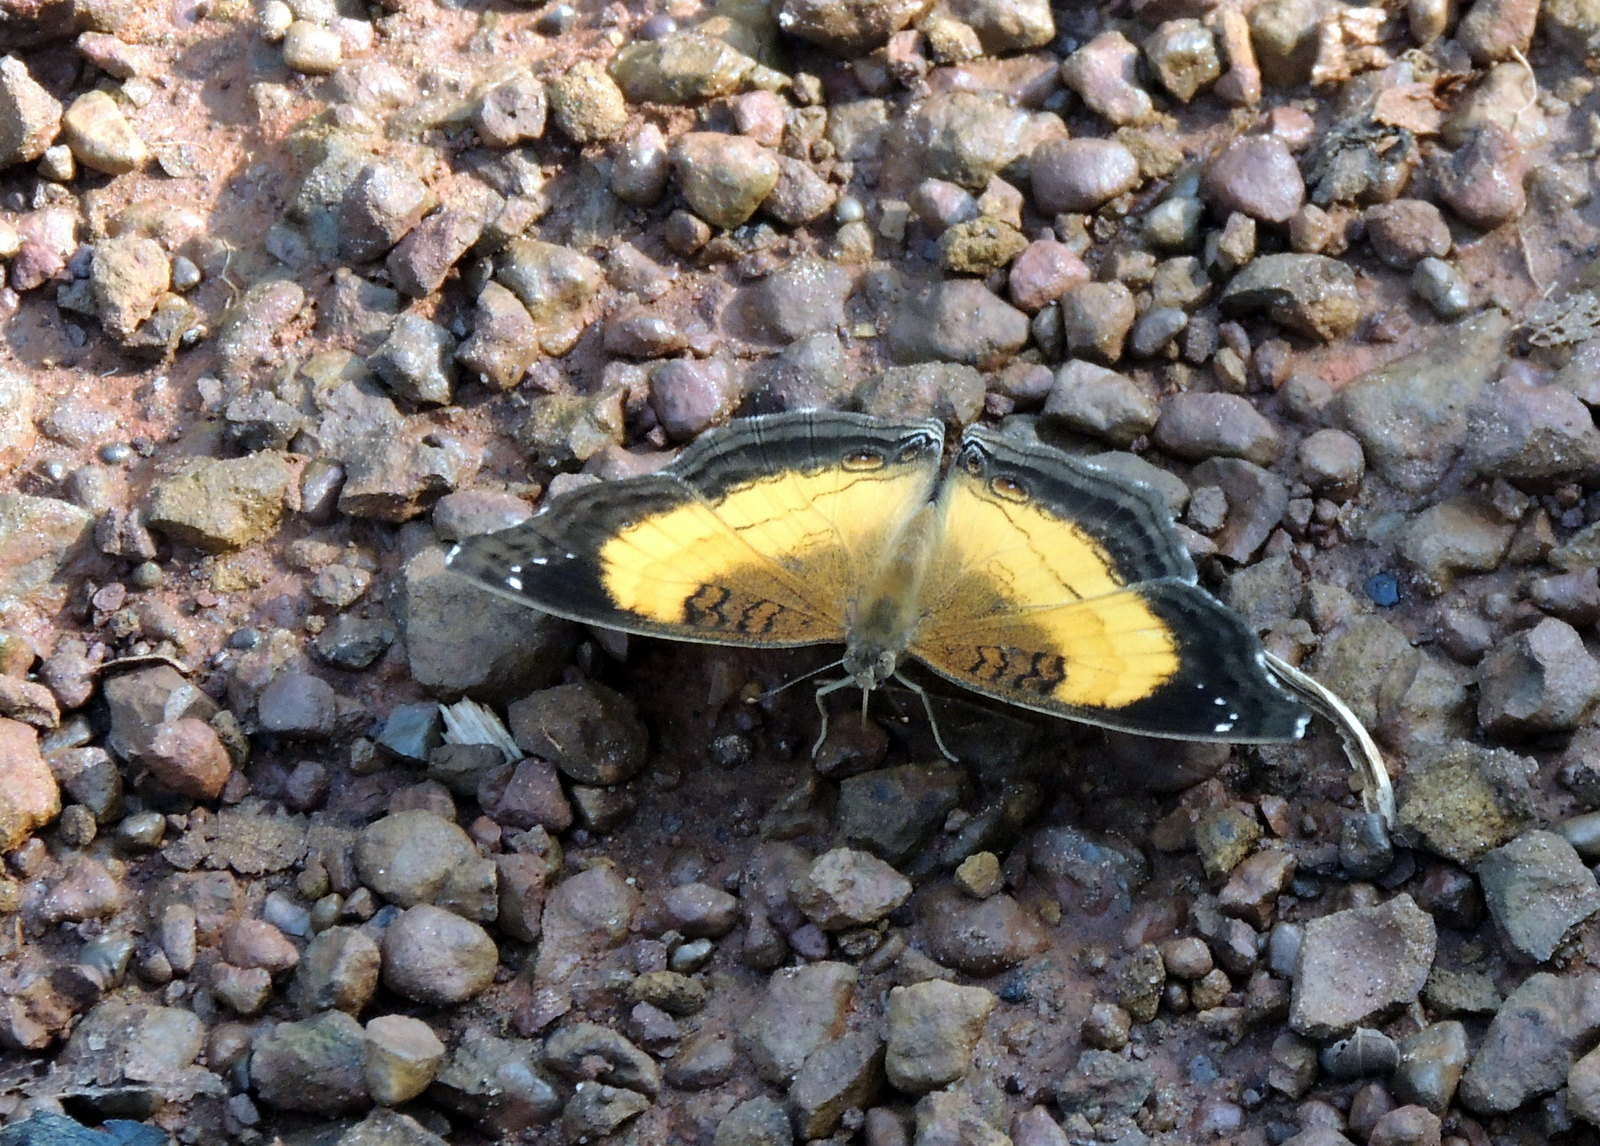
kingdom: Animalia
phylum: Arthropoda
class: Insecta
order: Lepidoptera
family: Nymphalidae
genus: Junonia
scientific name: Junonia terea
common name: Soldier pansy
